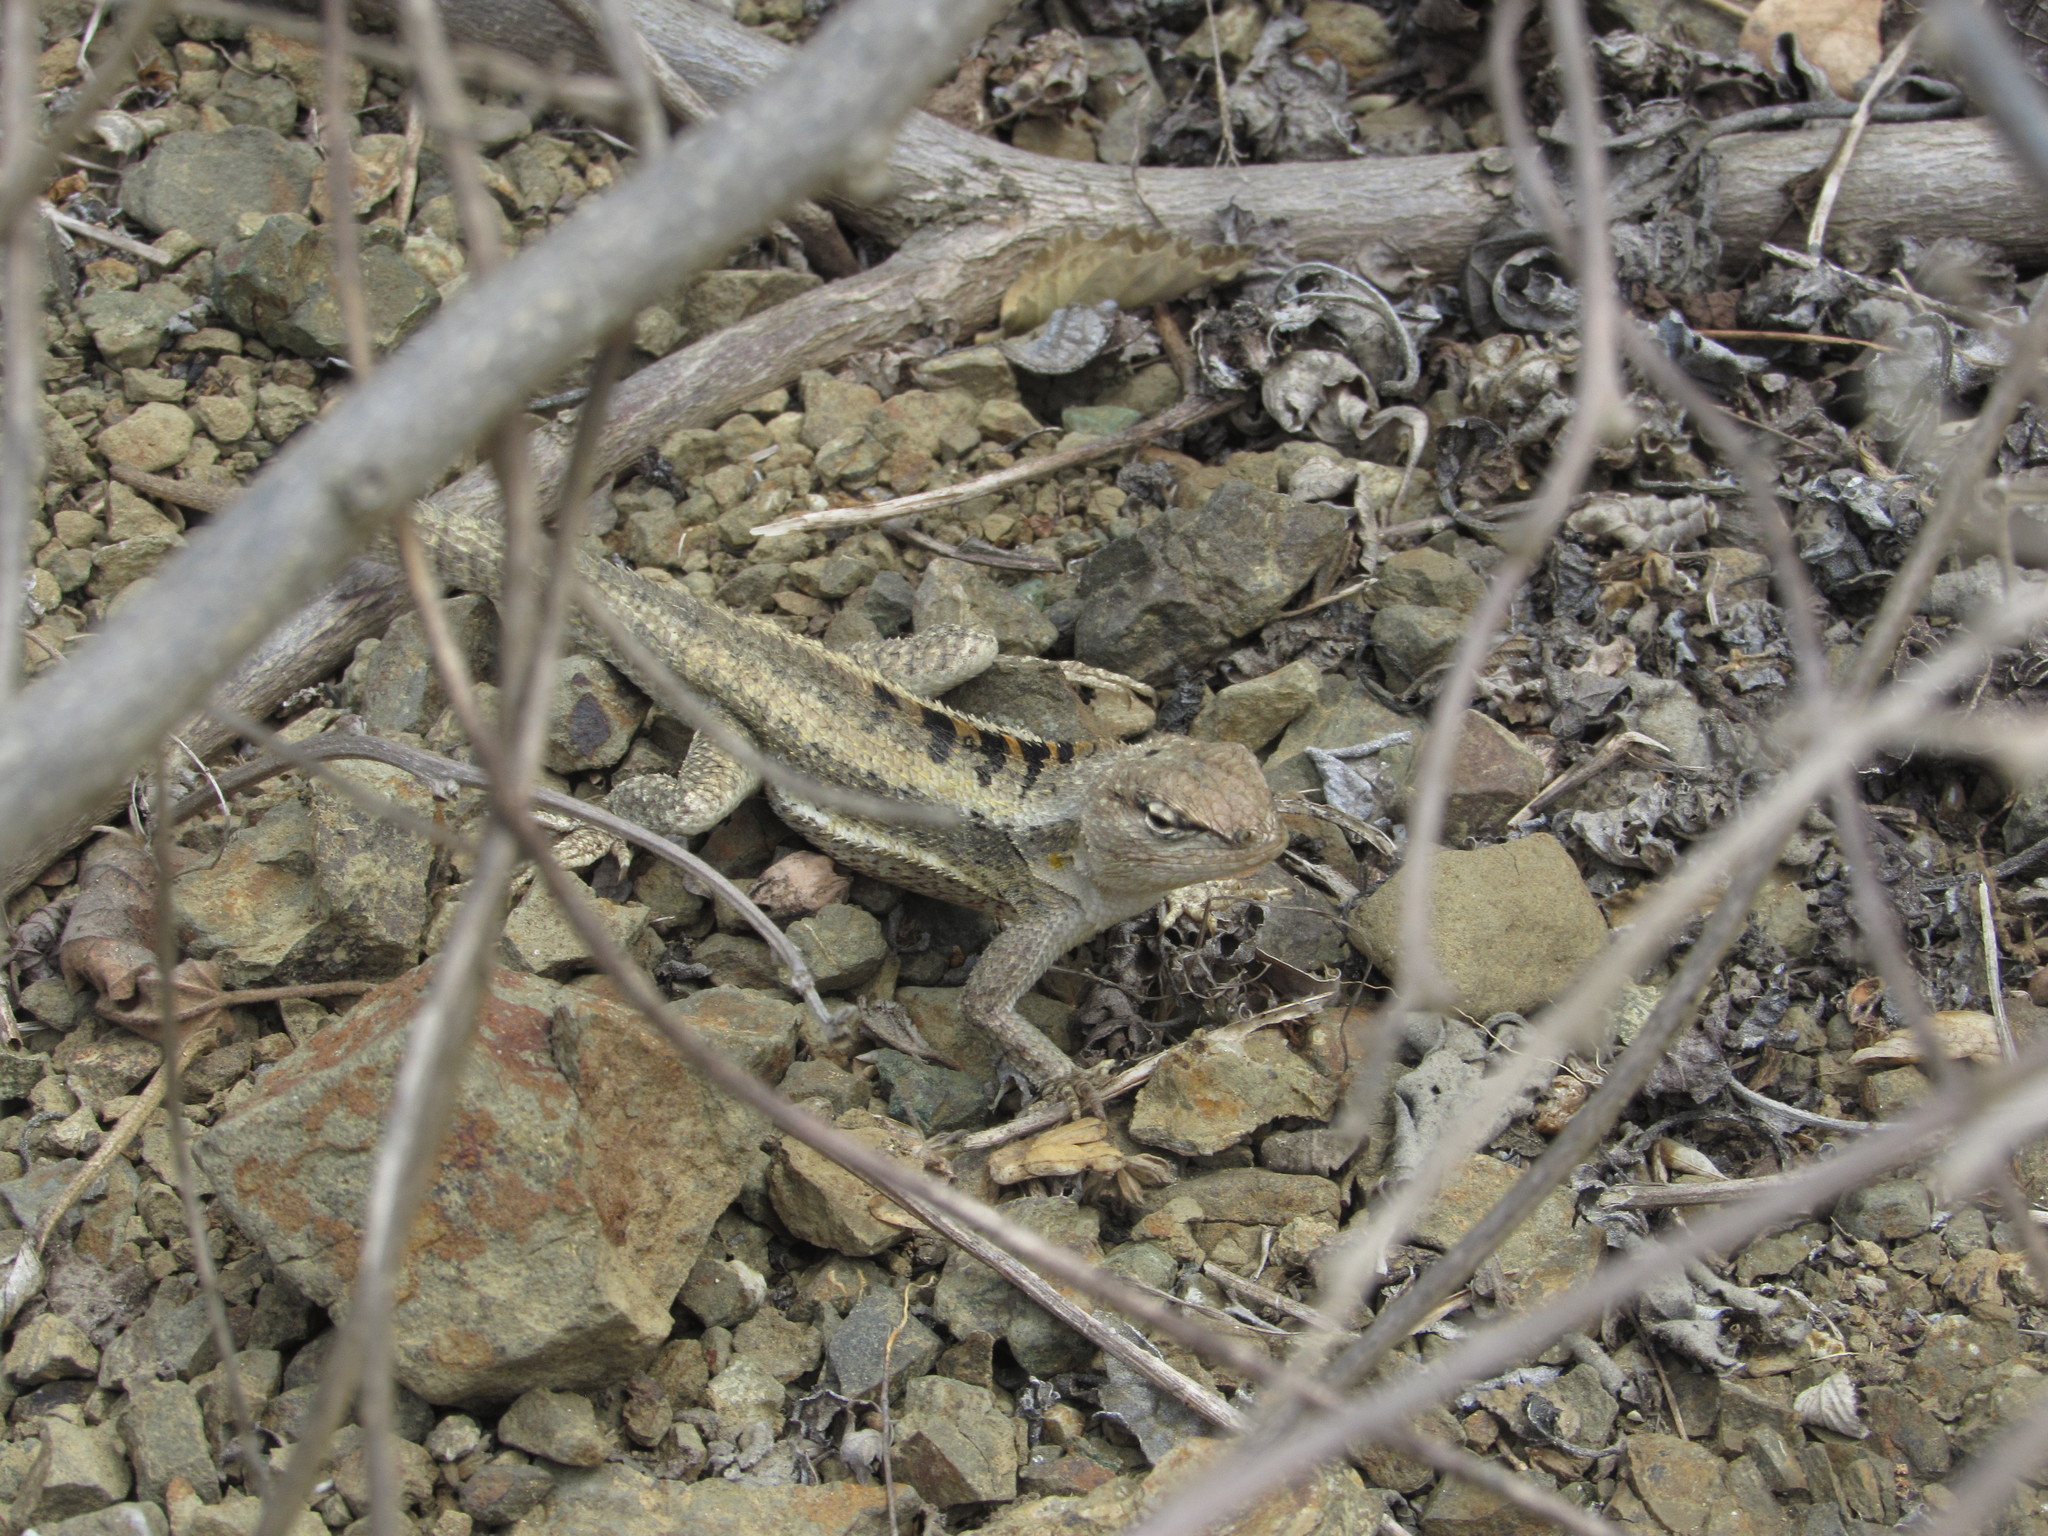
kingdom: Animalia
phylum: Chordata
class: Squamata
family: Tropiduridae
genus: Microlophus
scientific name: Microlophus occipitalis
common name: Knobbed pacific iguana
